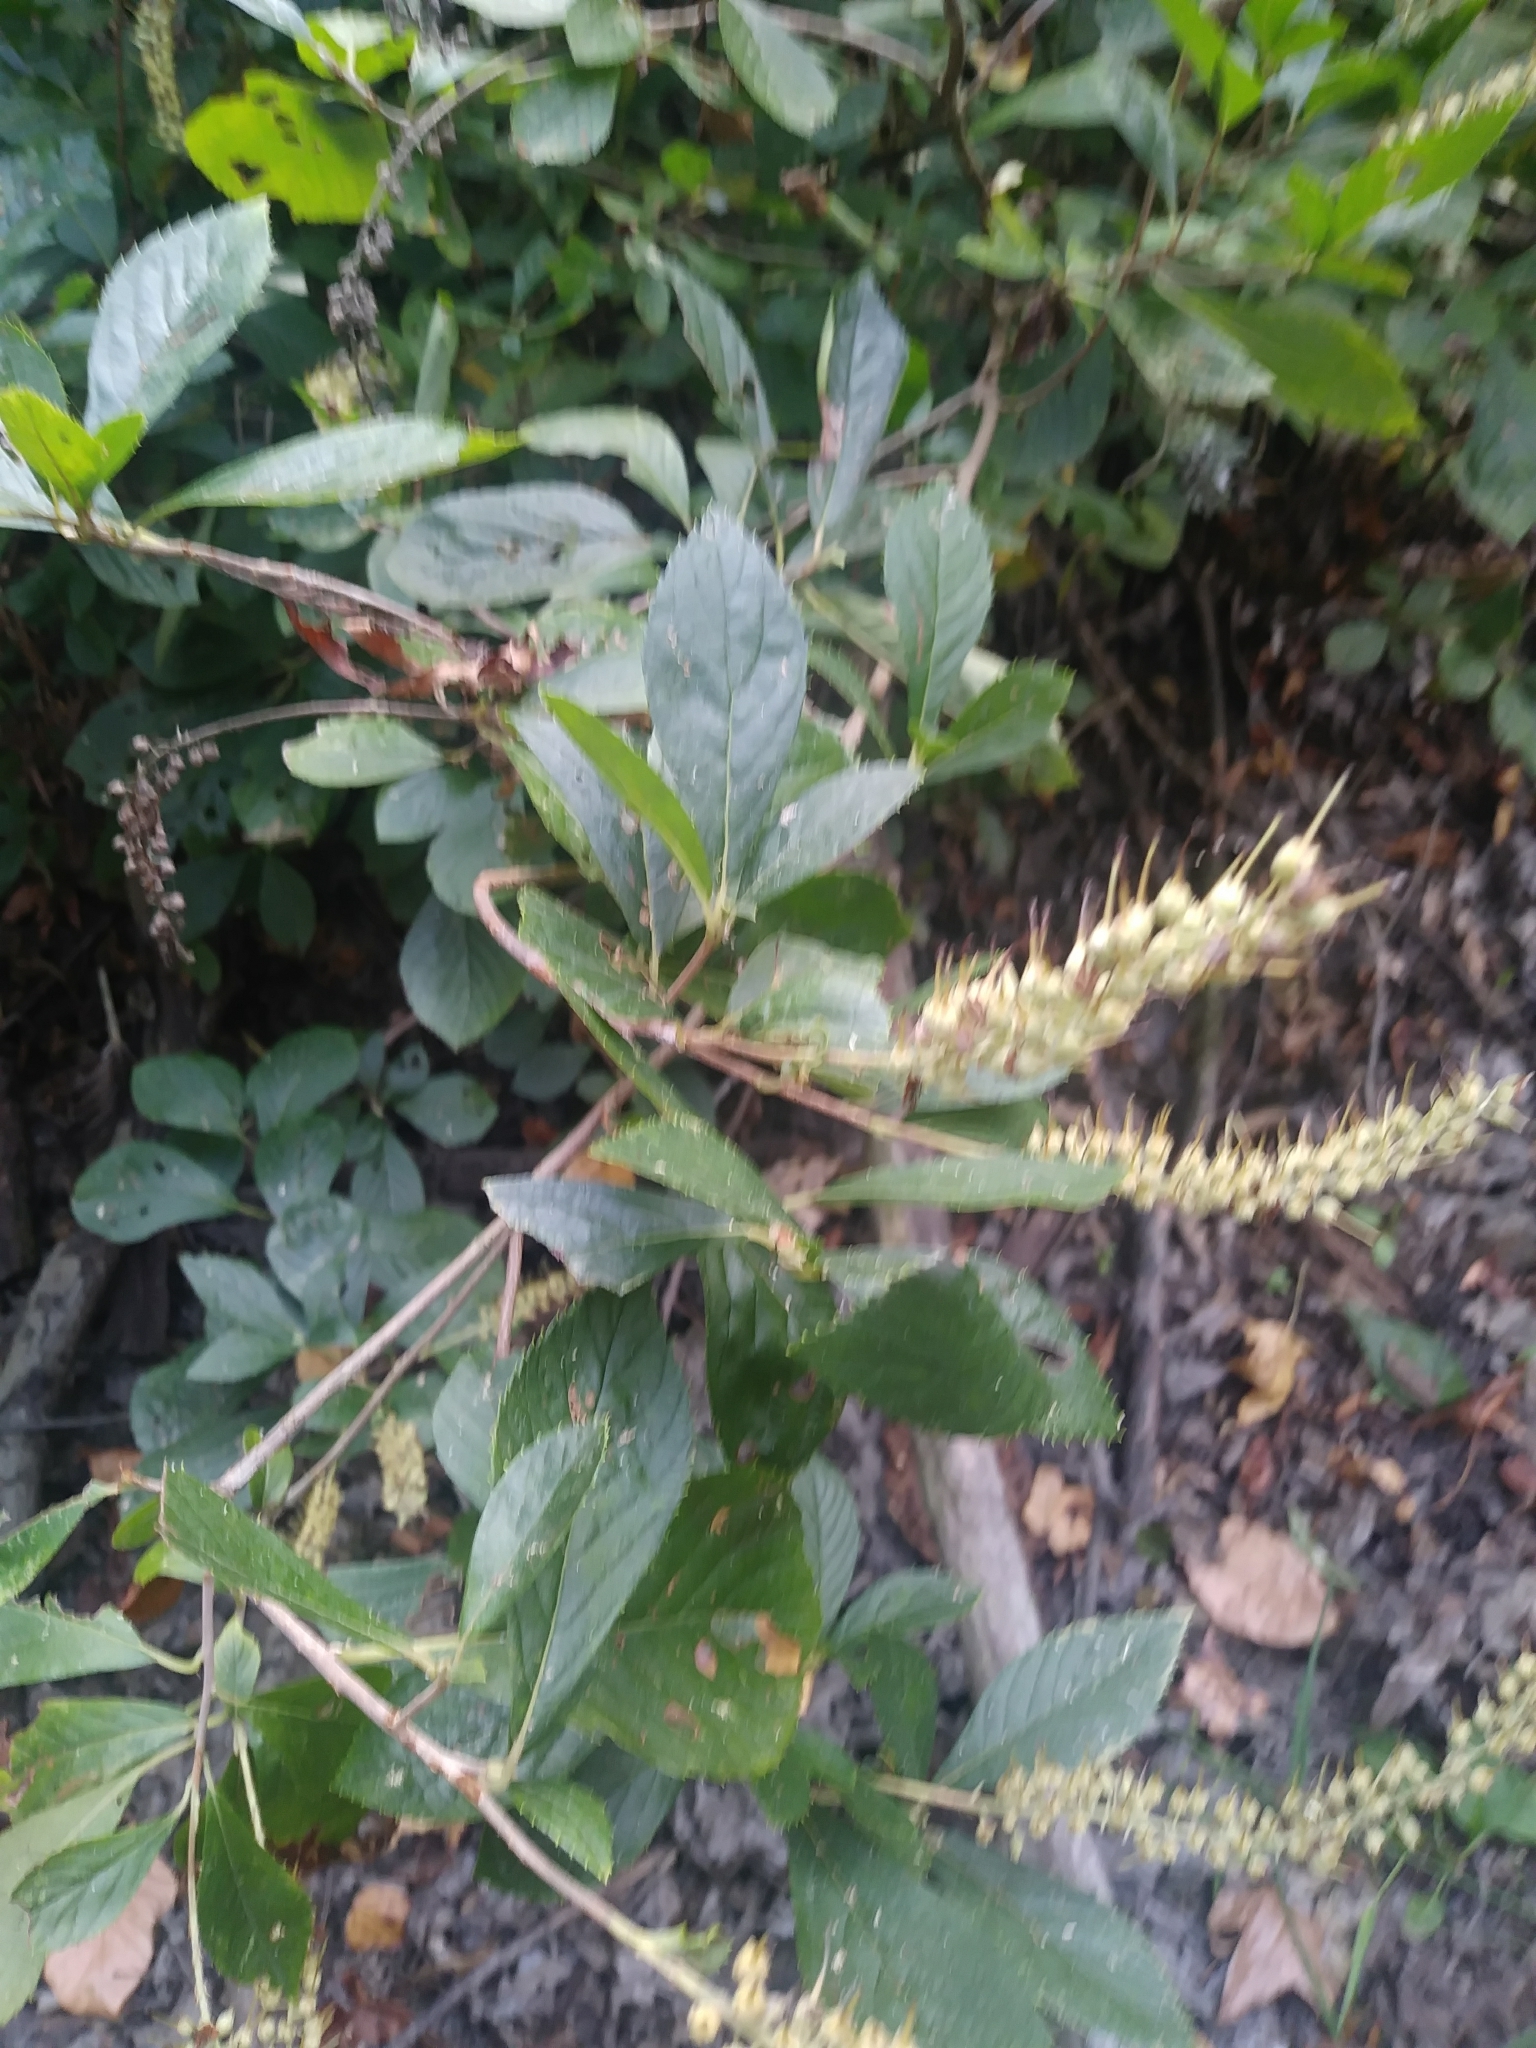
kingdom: Plantae
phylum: Tracheophyta
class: Magnoliopsida
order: Ericales
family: Clethraceae
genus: Clethra
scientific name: Clethra alnifolia
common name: Sweet pepperbush
